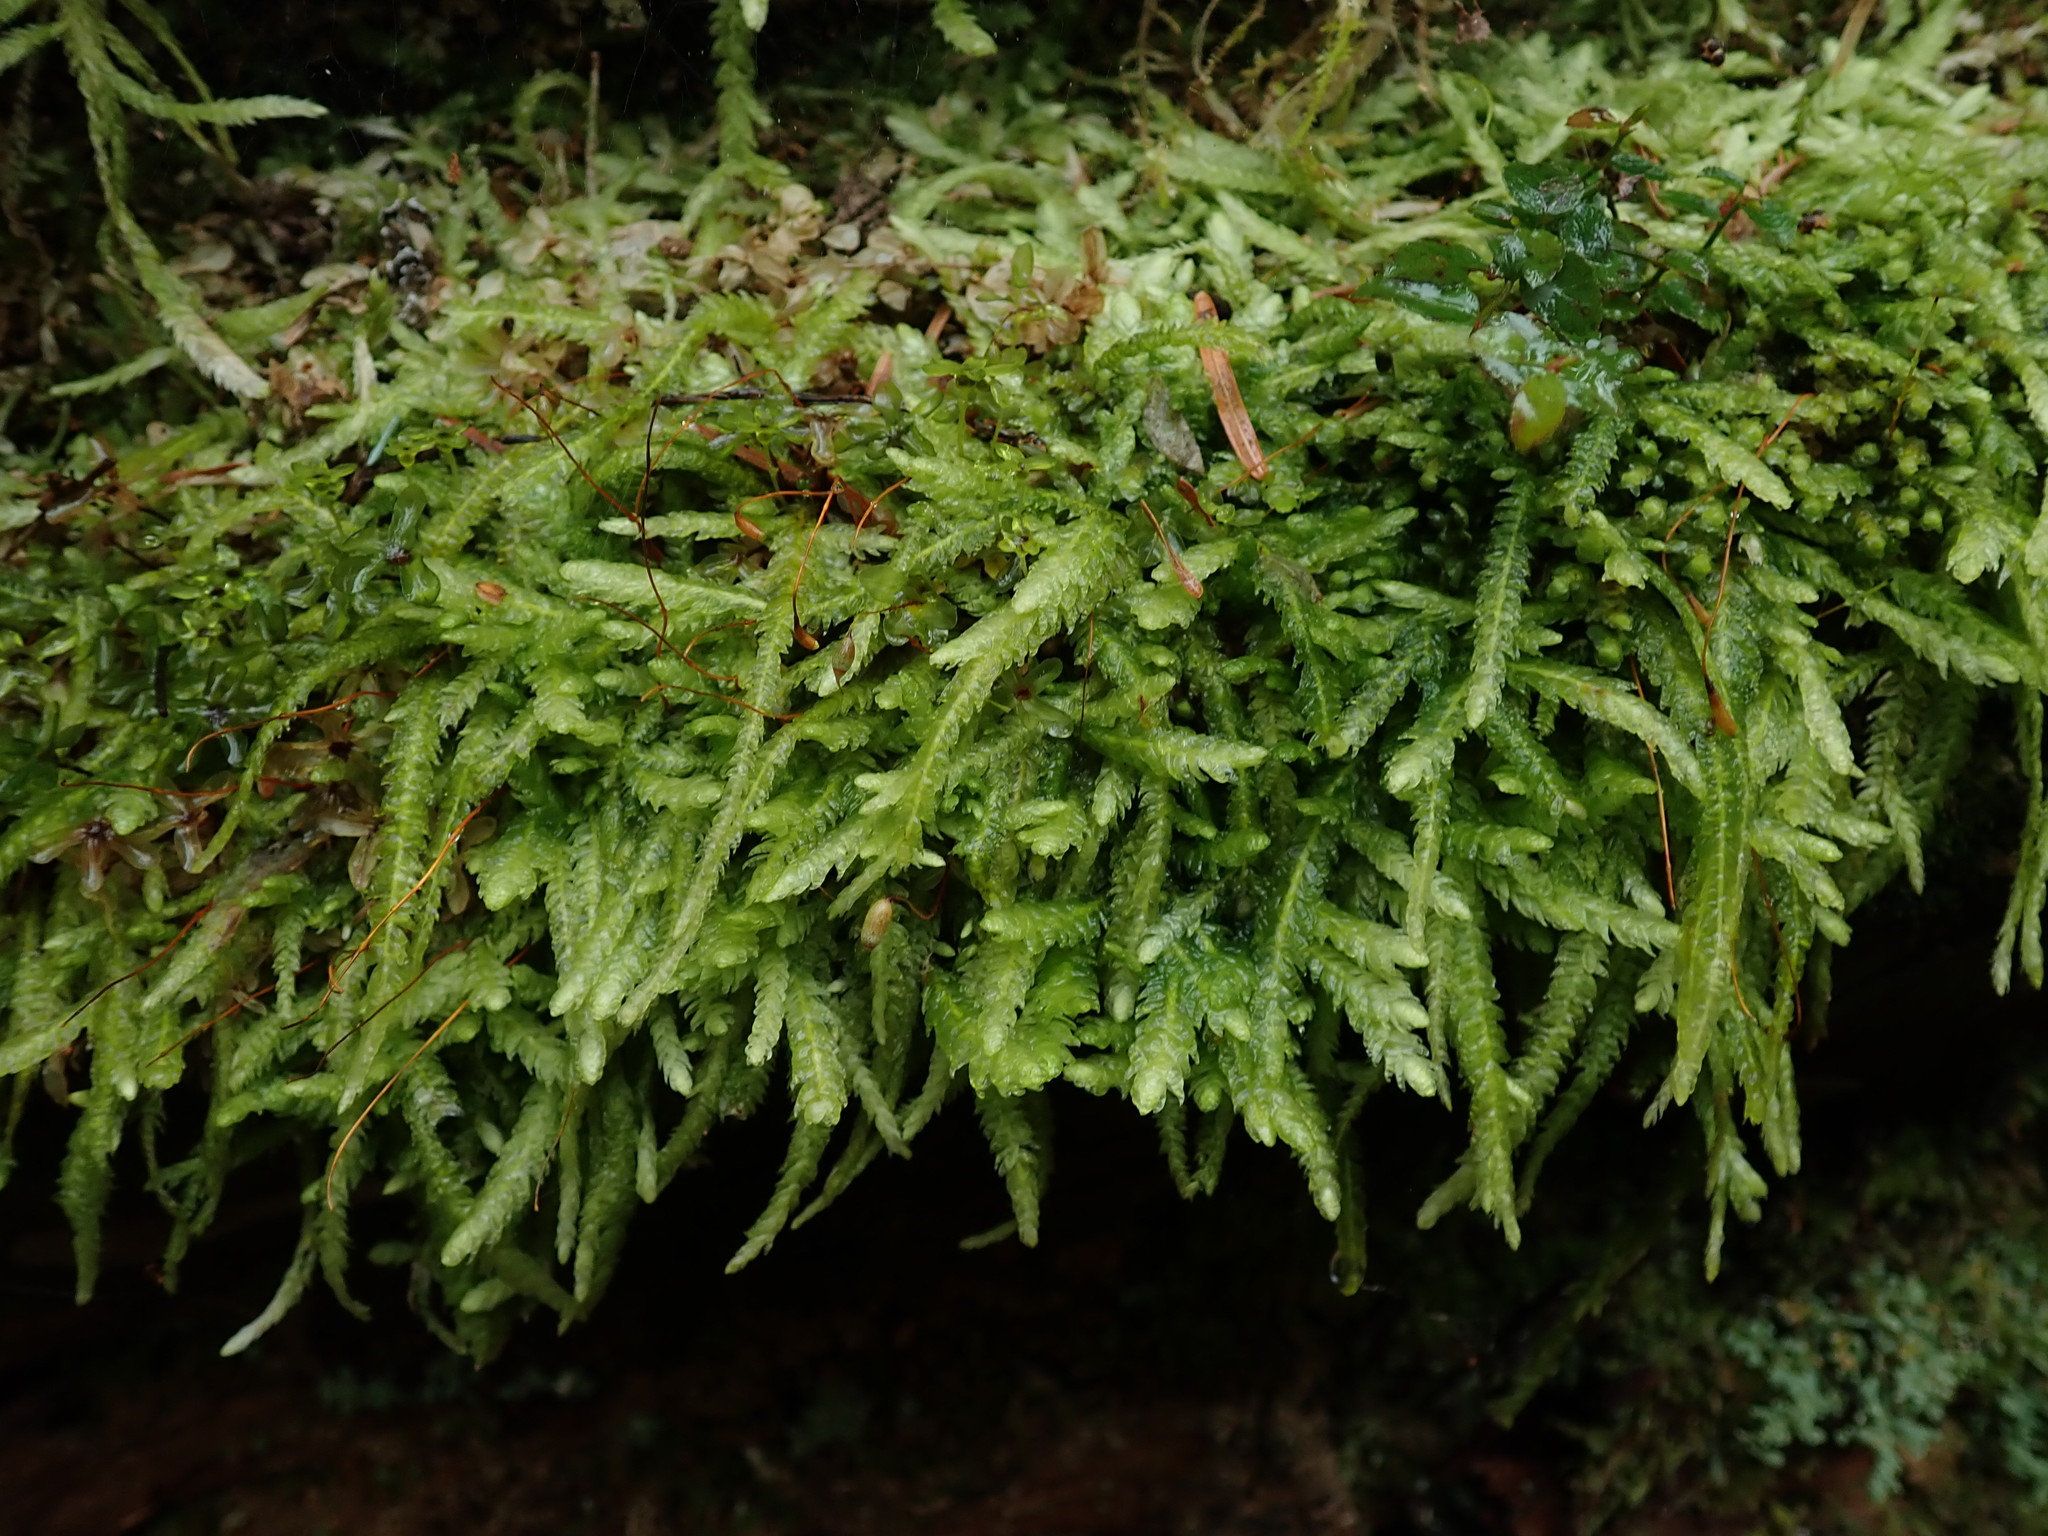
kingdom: Plantae
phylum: Bryophyta
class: Bryopsida
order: Hypnales
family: Plagiotheciaceae
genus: Plagiothecium
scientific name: Plagiothecium undulatum
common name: Waved silk-moss
